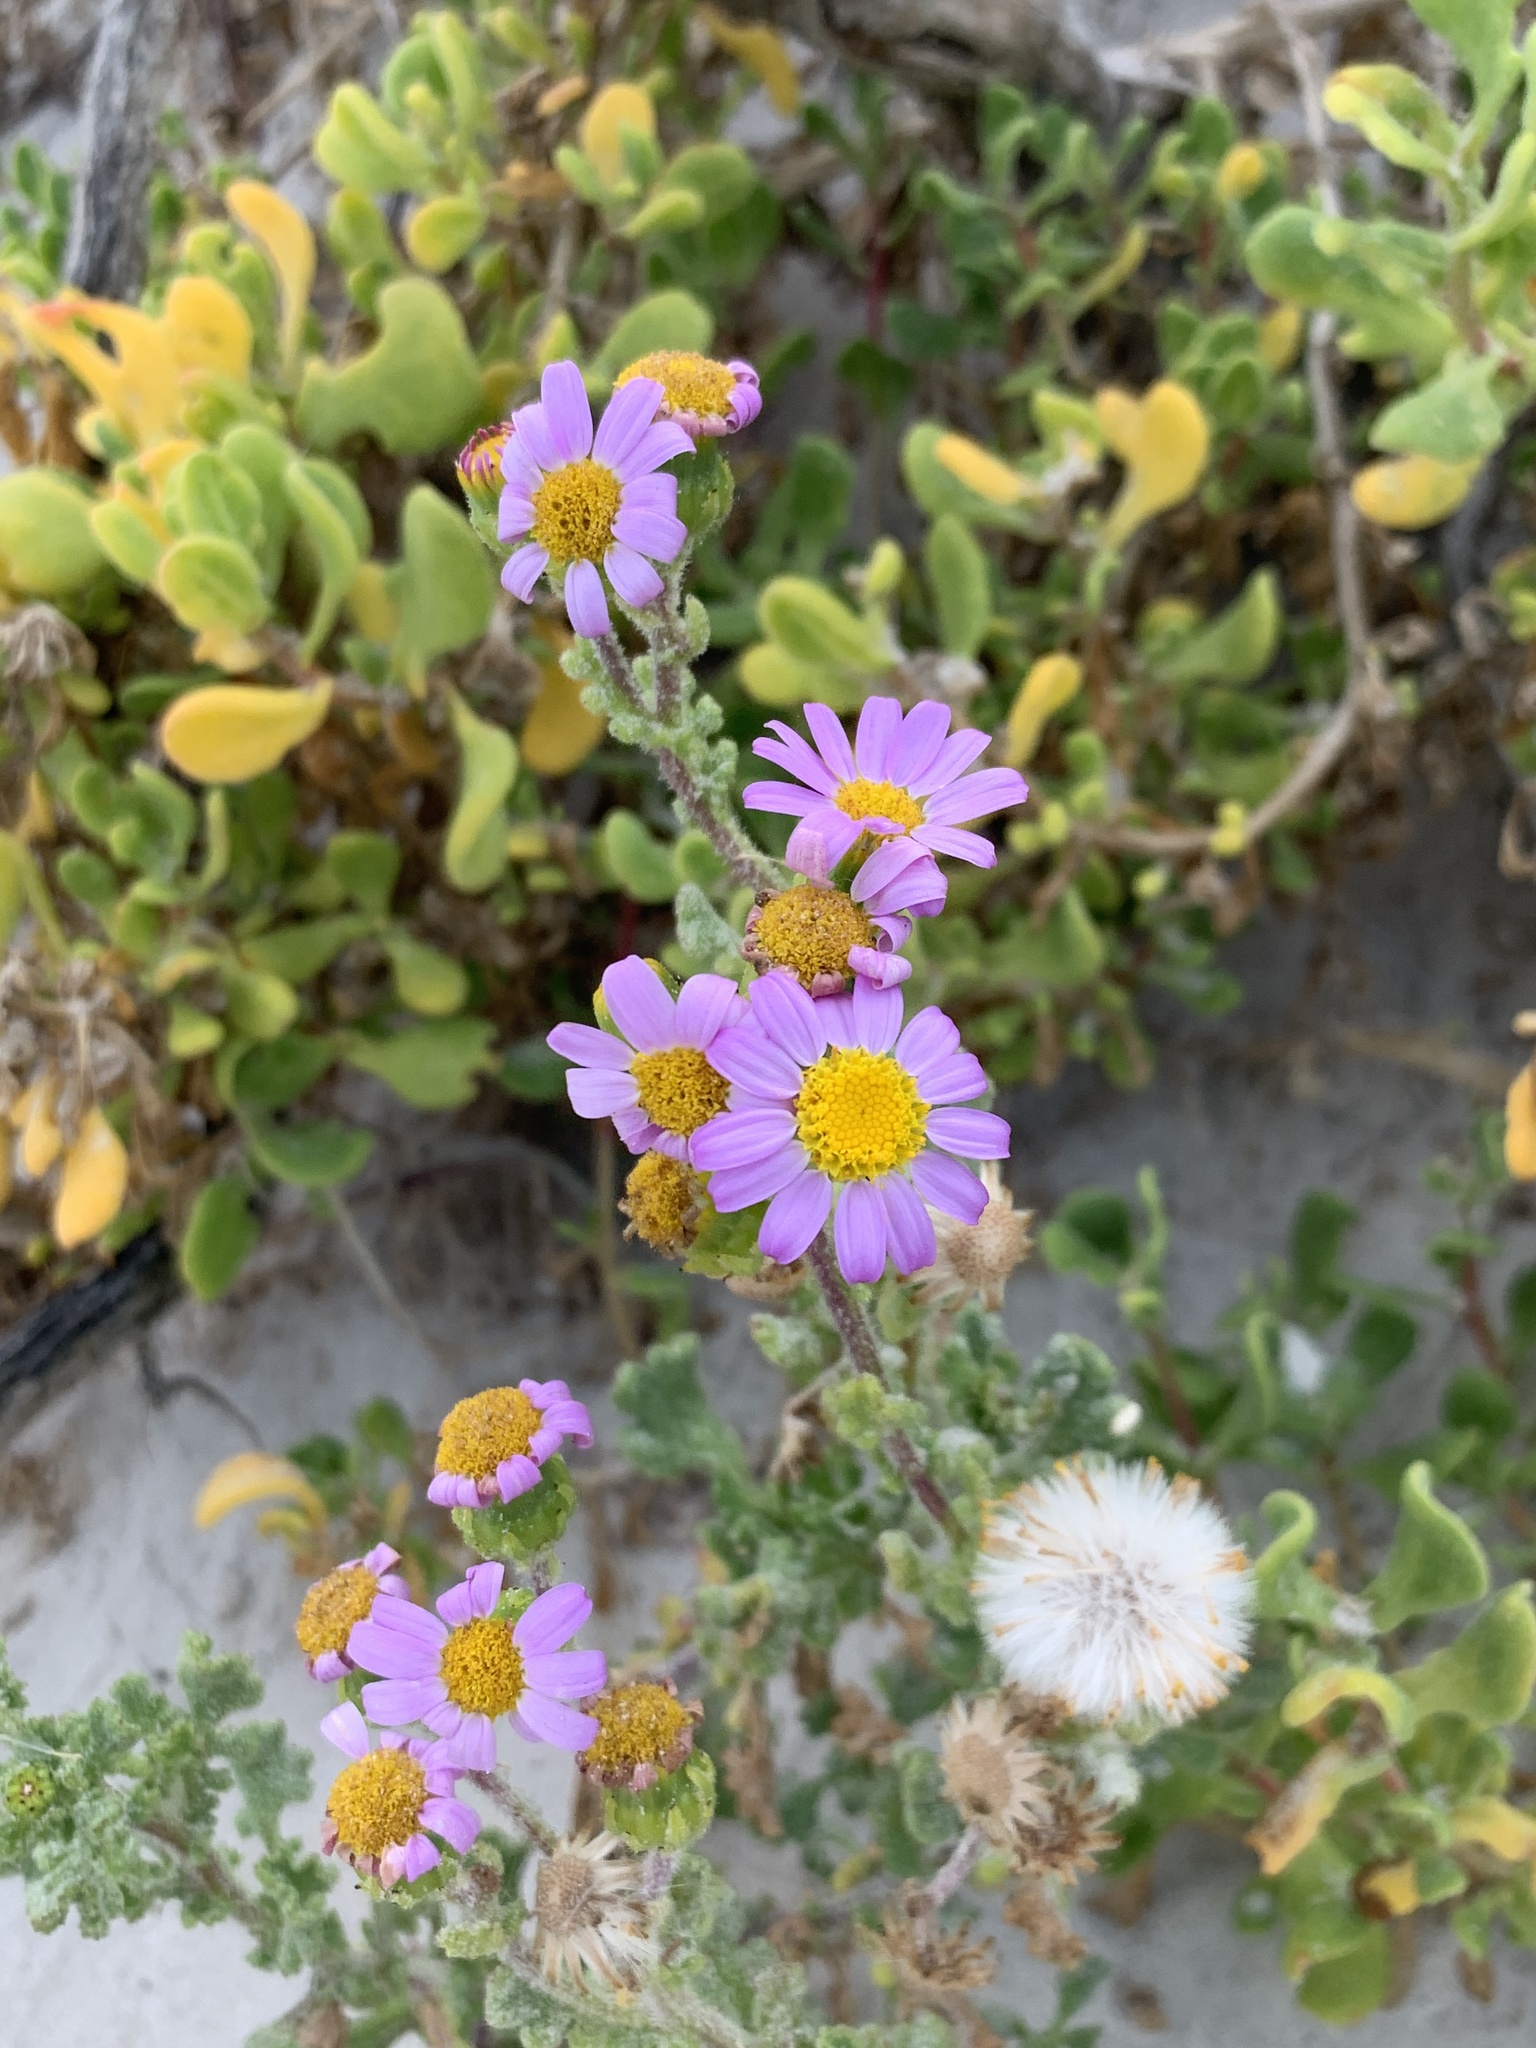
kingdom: Plantae
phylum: Tracheophyta
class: Magnoliopsida
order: Asterales
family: Asteraceae
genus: Senecio
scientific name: Senecio elegans
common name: Purple groundsel
